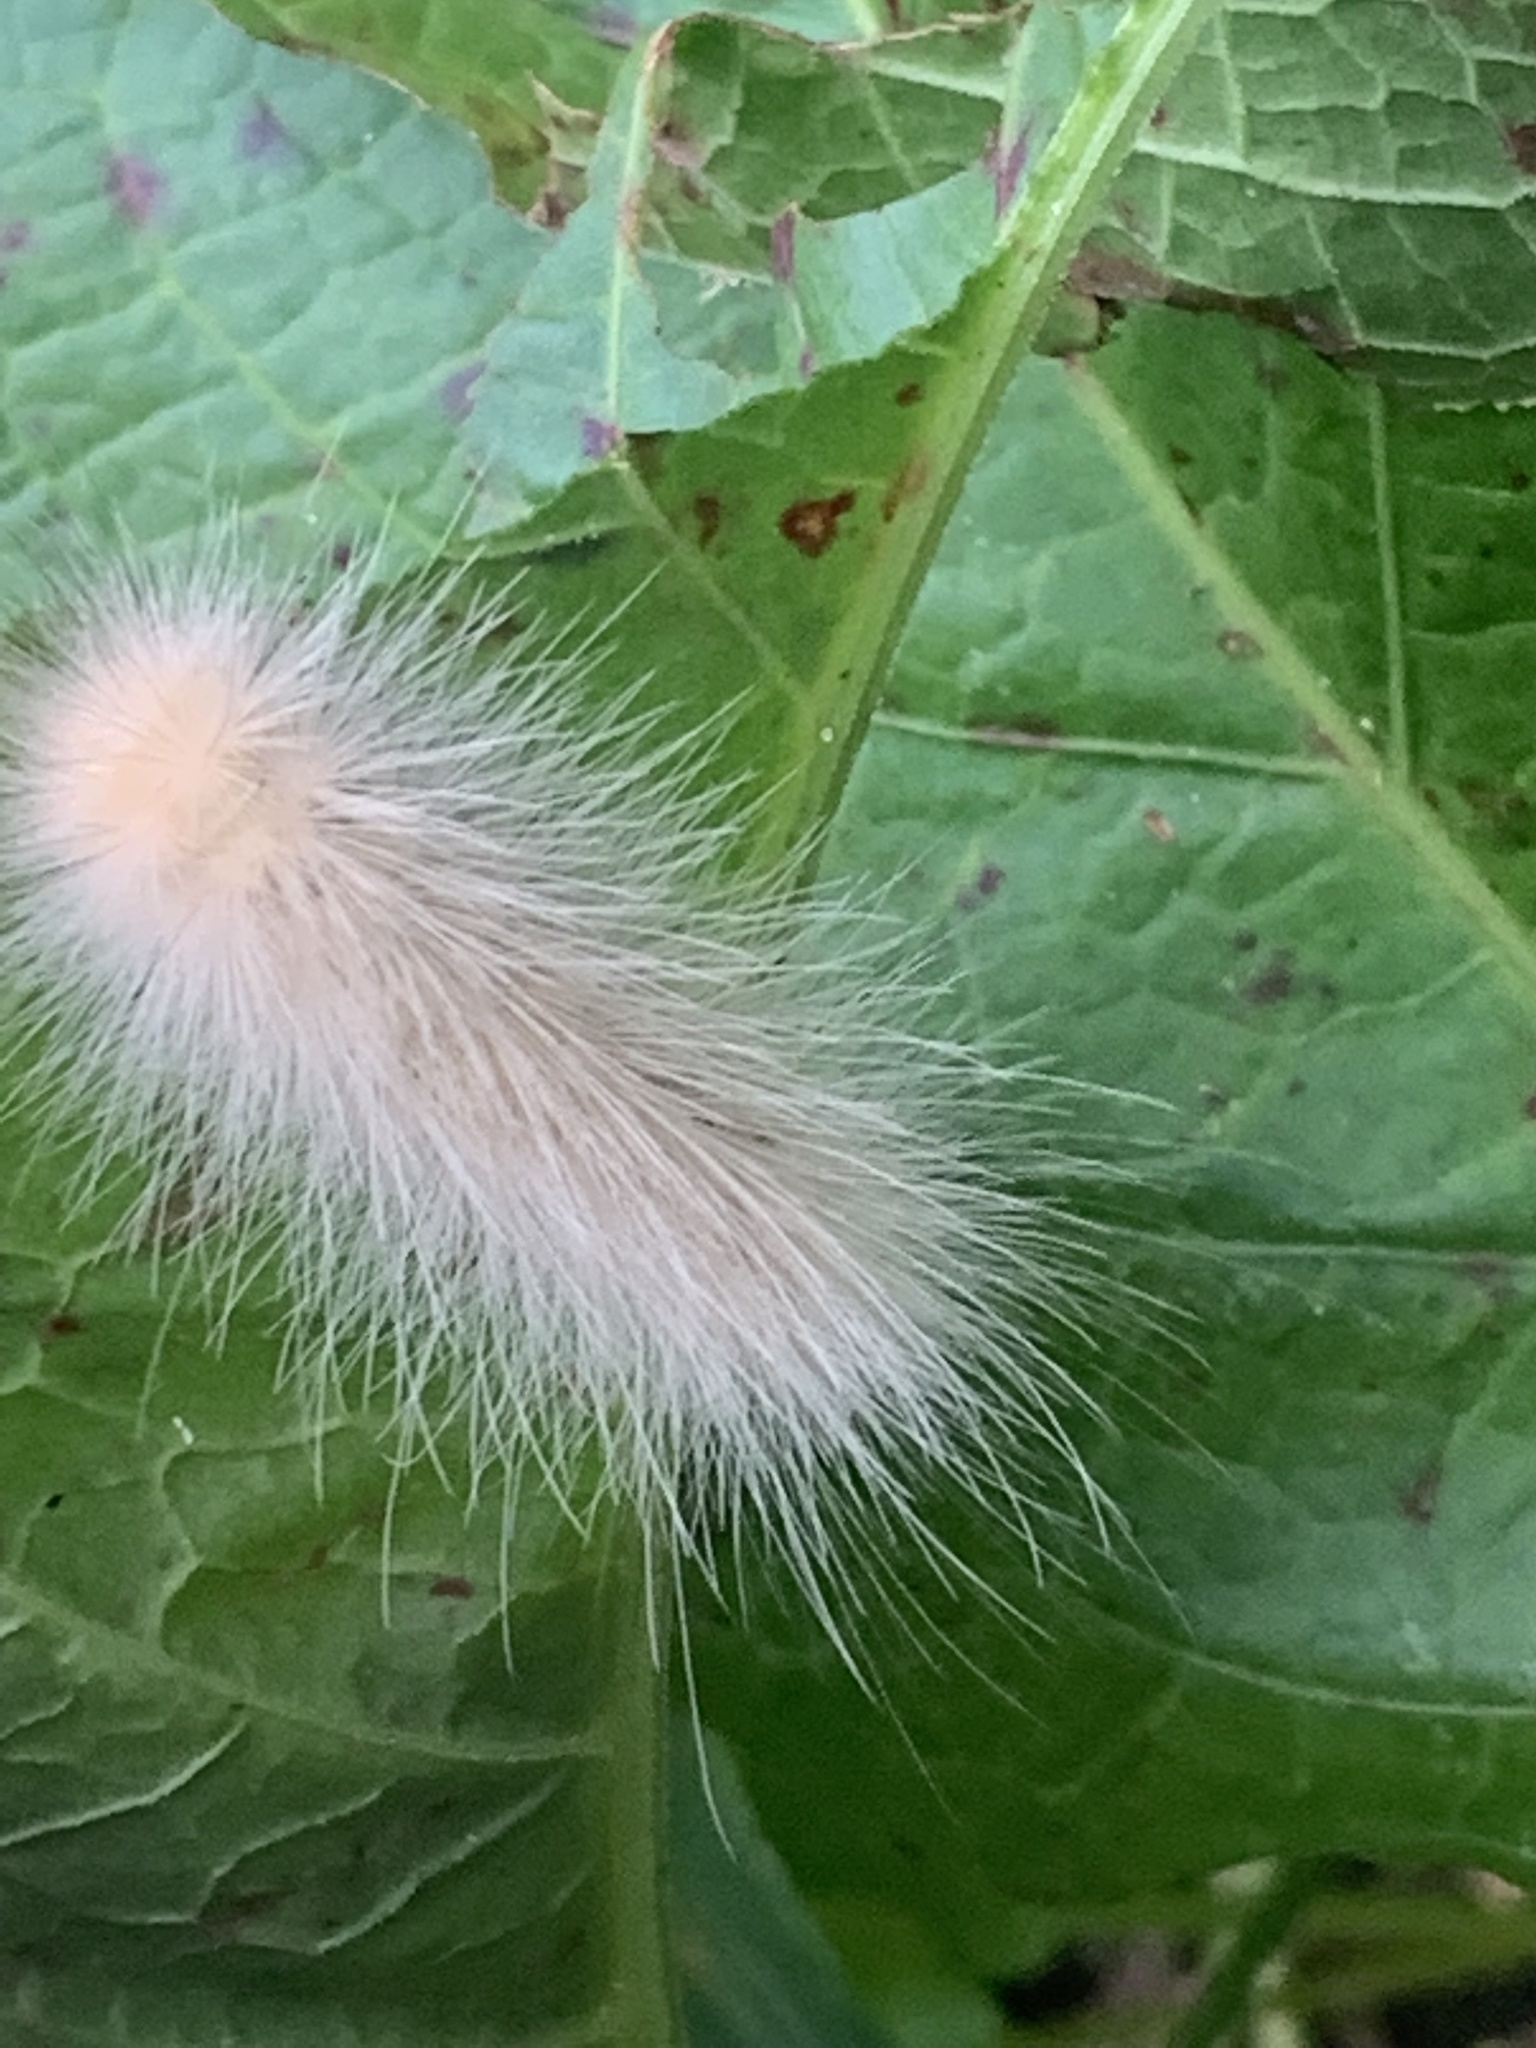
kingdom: Animalia
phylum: Arthropoda
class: Insecta
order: Lepidoptera
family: Erebidae
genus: Spilosoma
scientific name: Spilosoma virginica
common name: Virginia tiger moth
